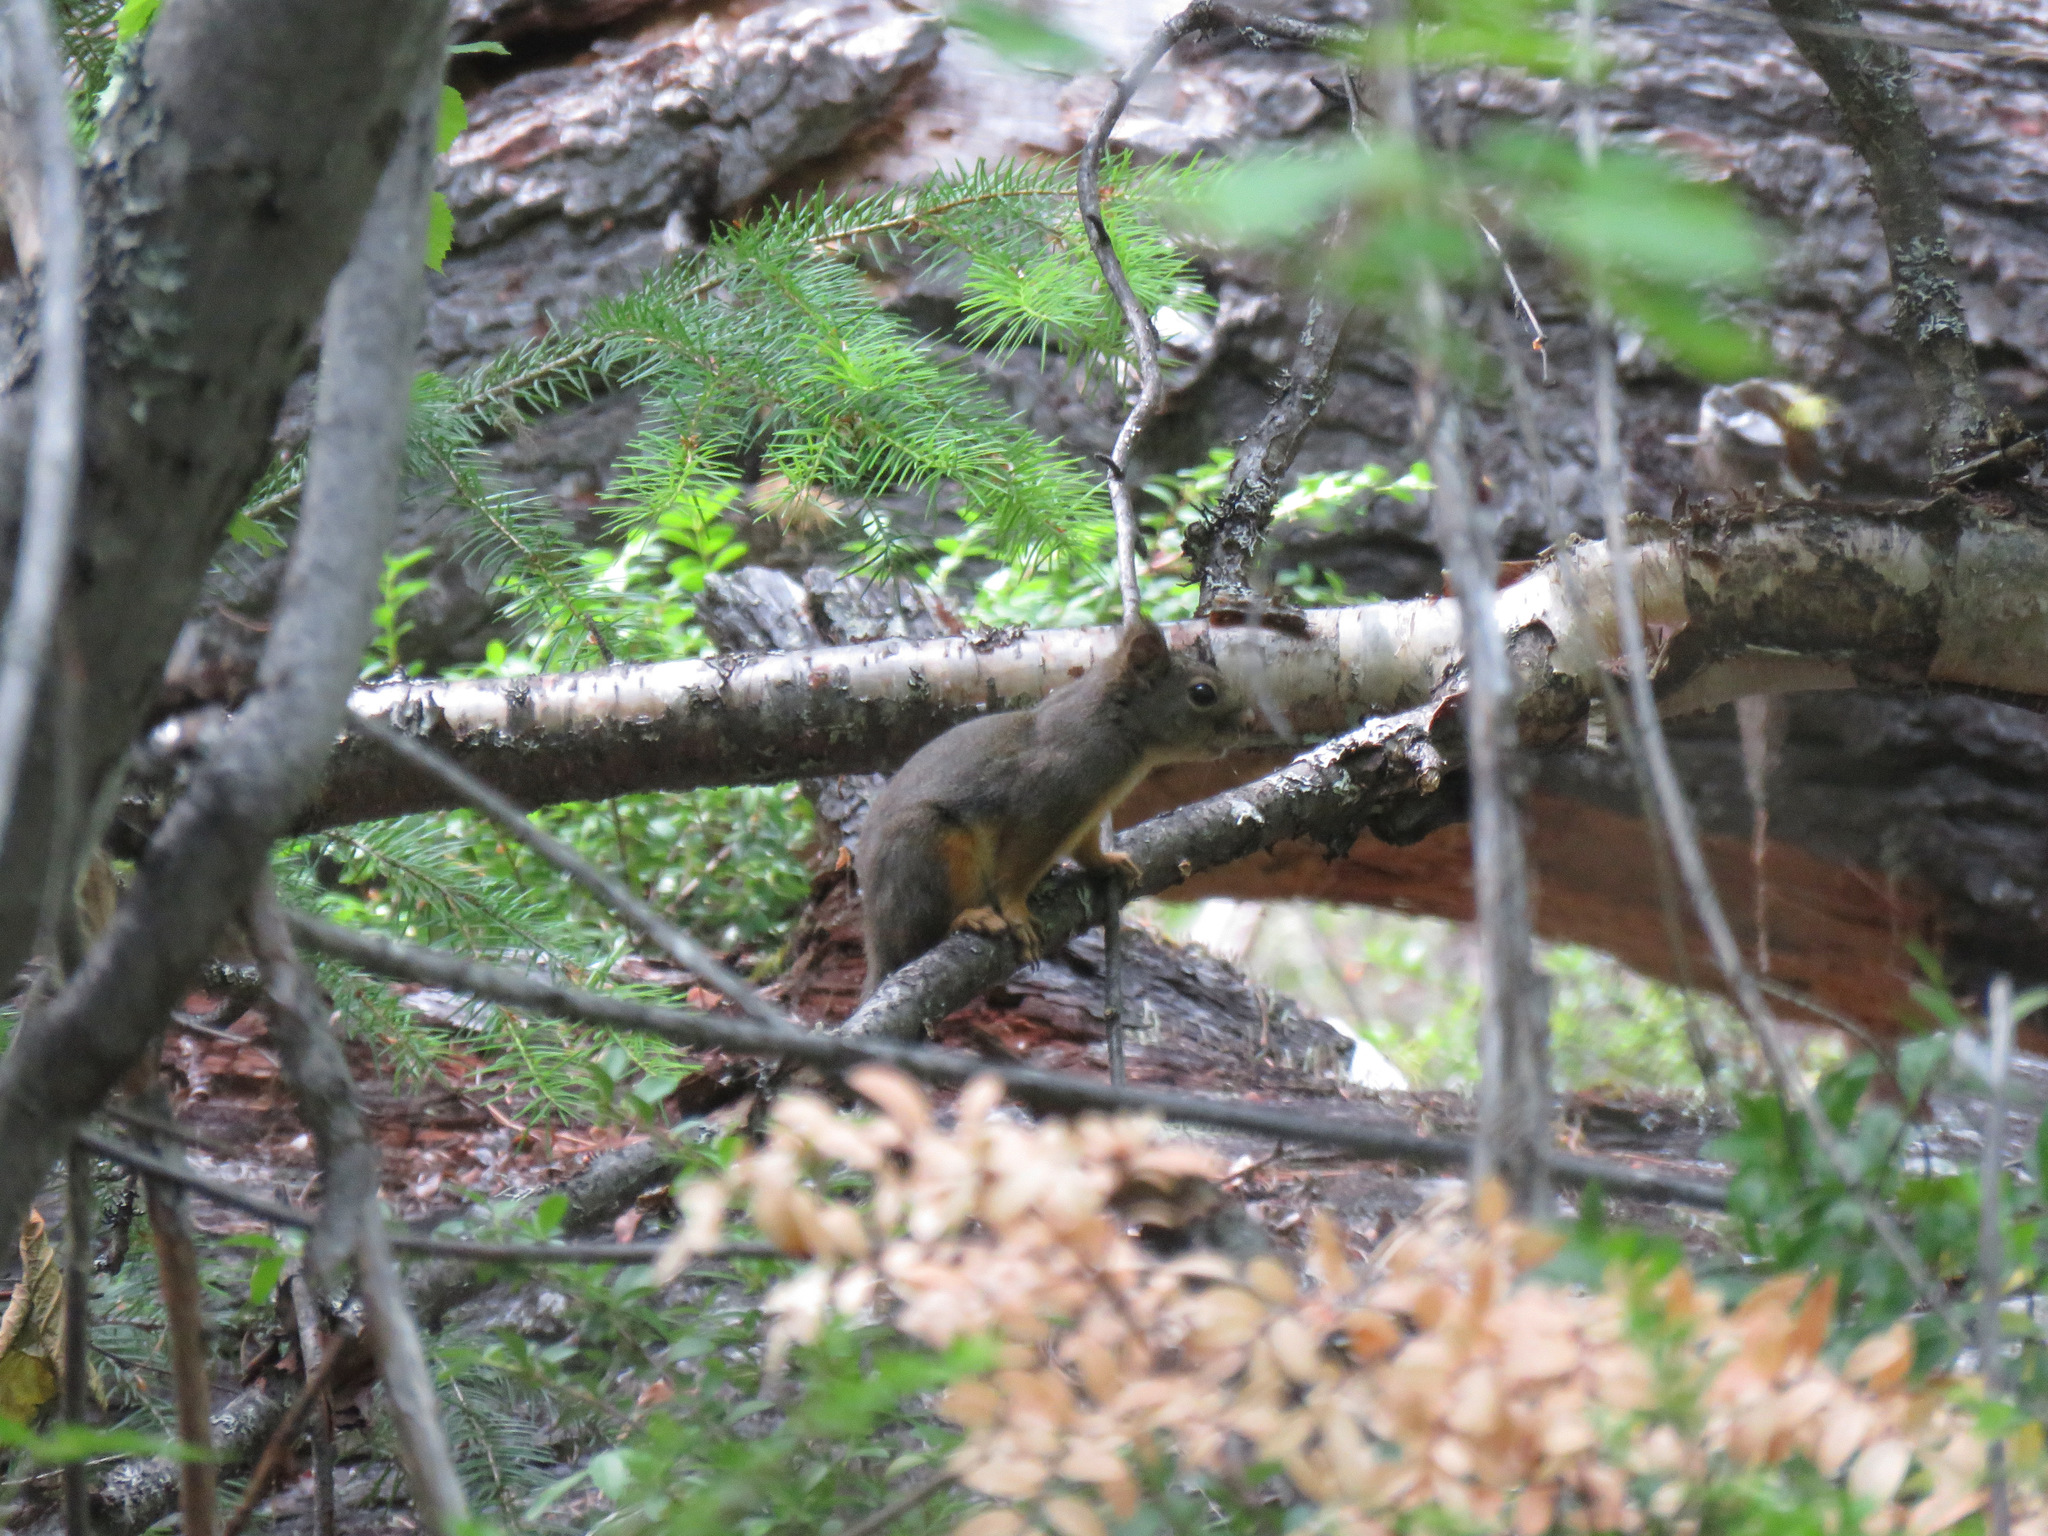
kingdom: Animalia
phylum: Chordata
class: Mammalia
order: Rodentia
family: Sciuridae
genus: Tamiasciurus
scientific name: Tamiasciurus douglasii
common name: Douglas's squirrel
